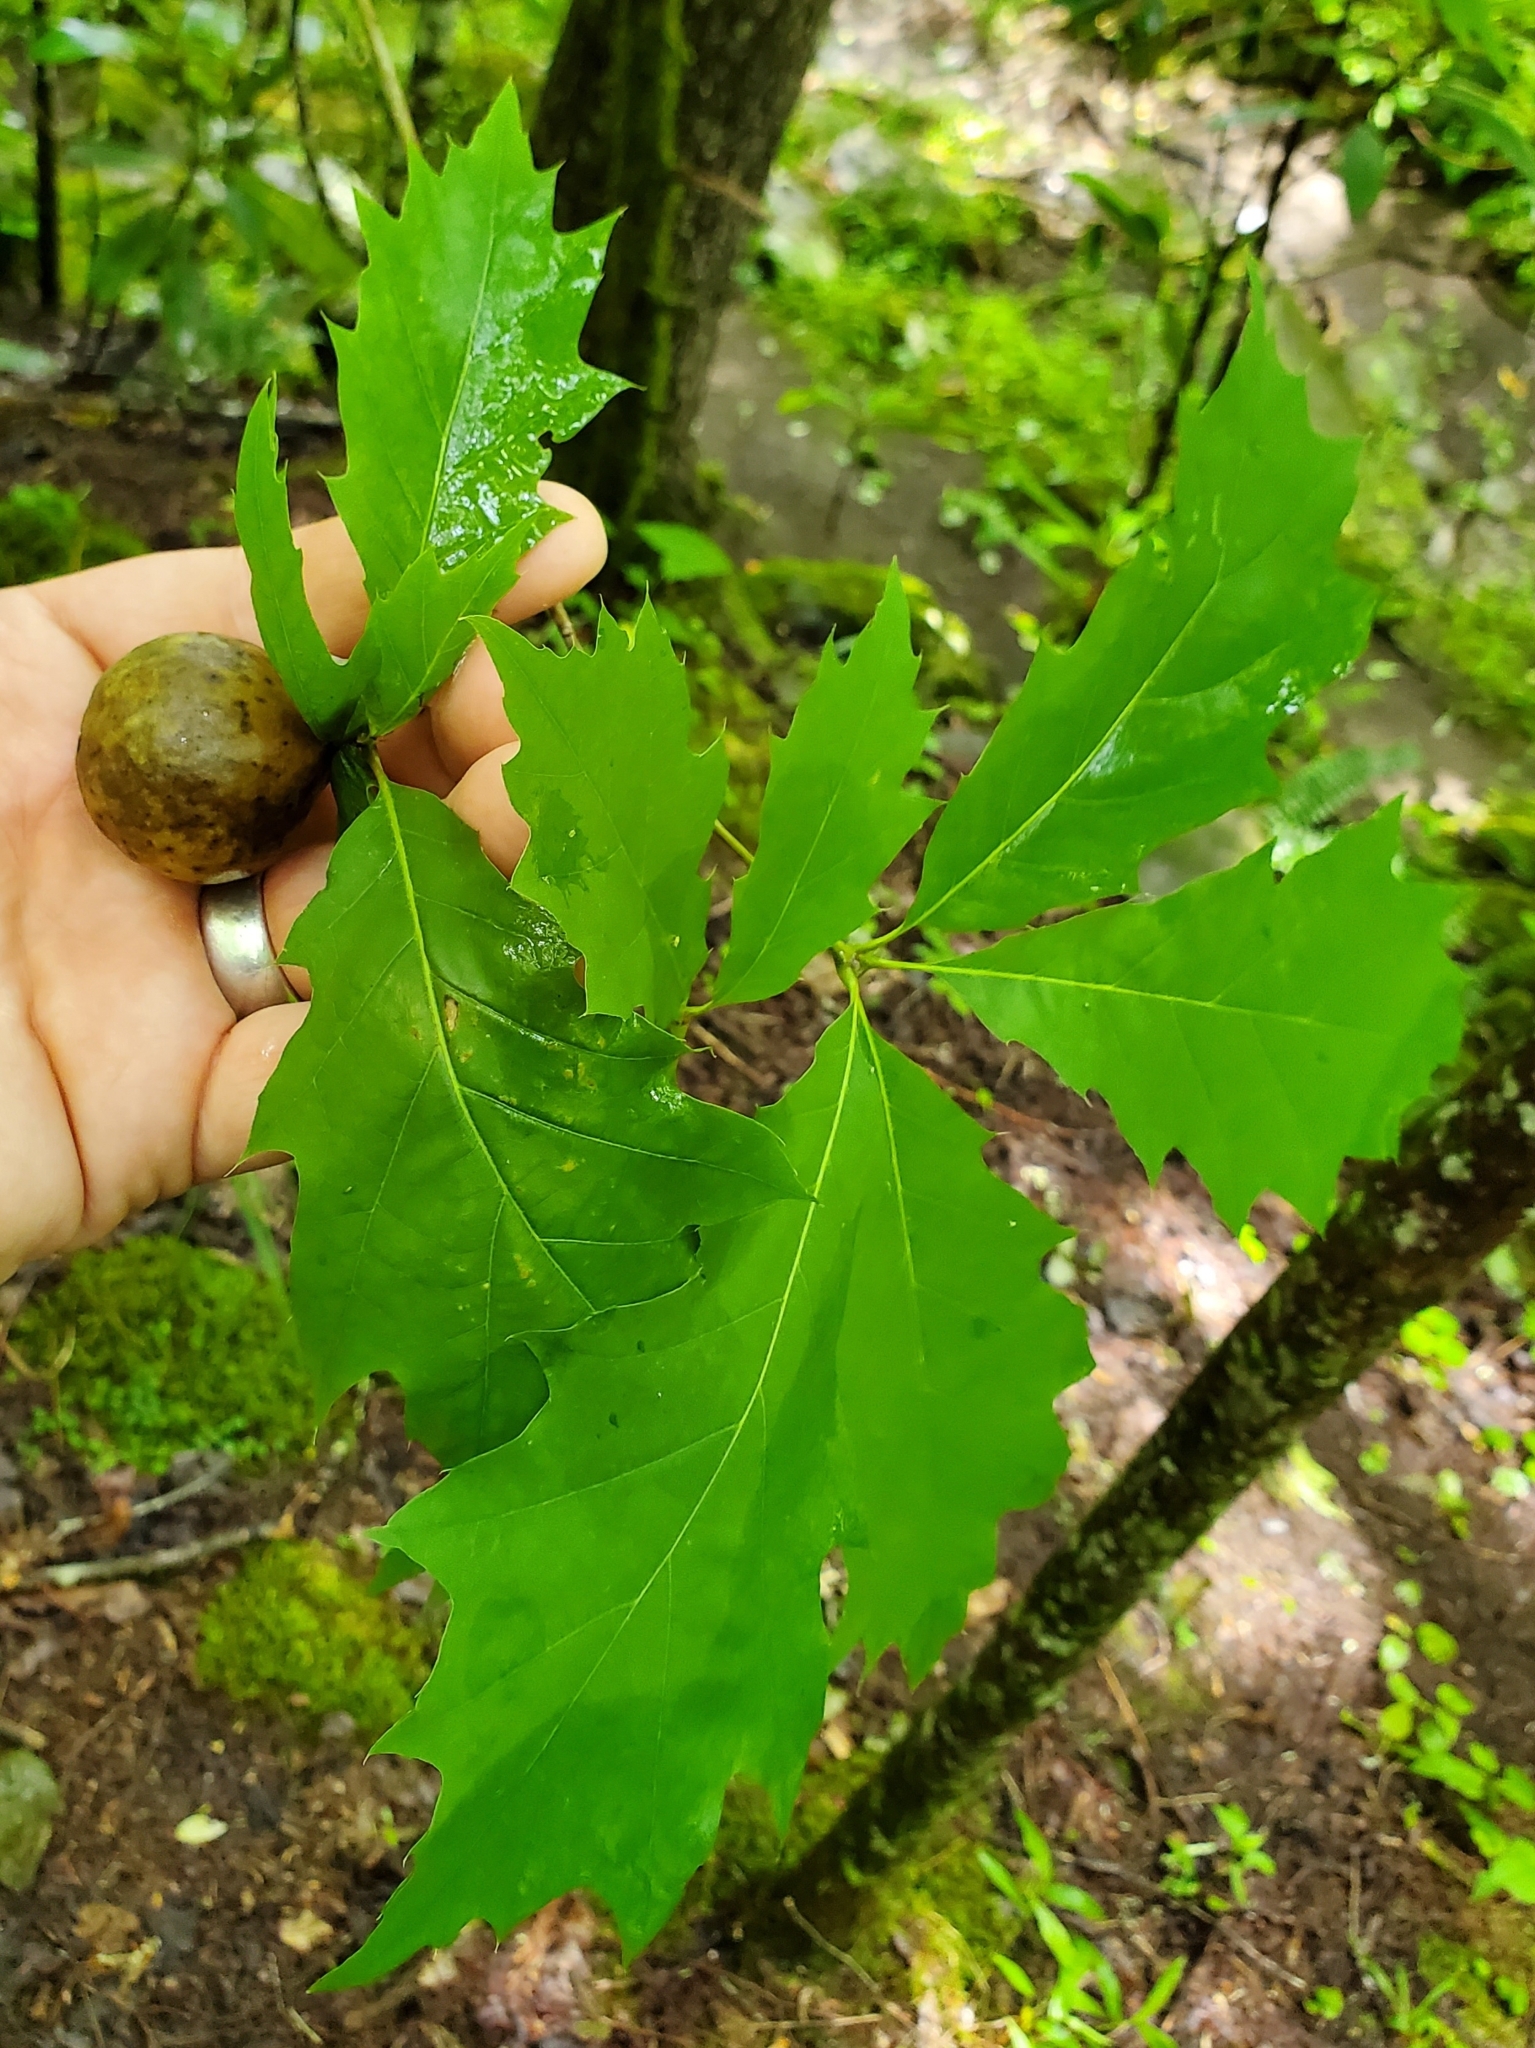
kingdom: Animalia
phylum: Arthropoda
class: Insecta
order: Hymenoptera
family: Cynipidae
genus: Amphibolips
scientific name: Amphibolips
